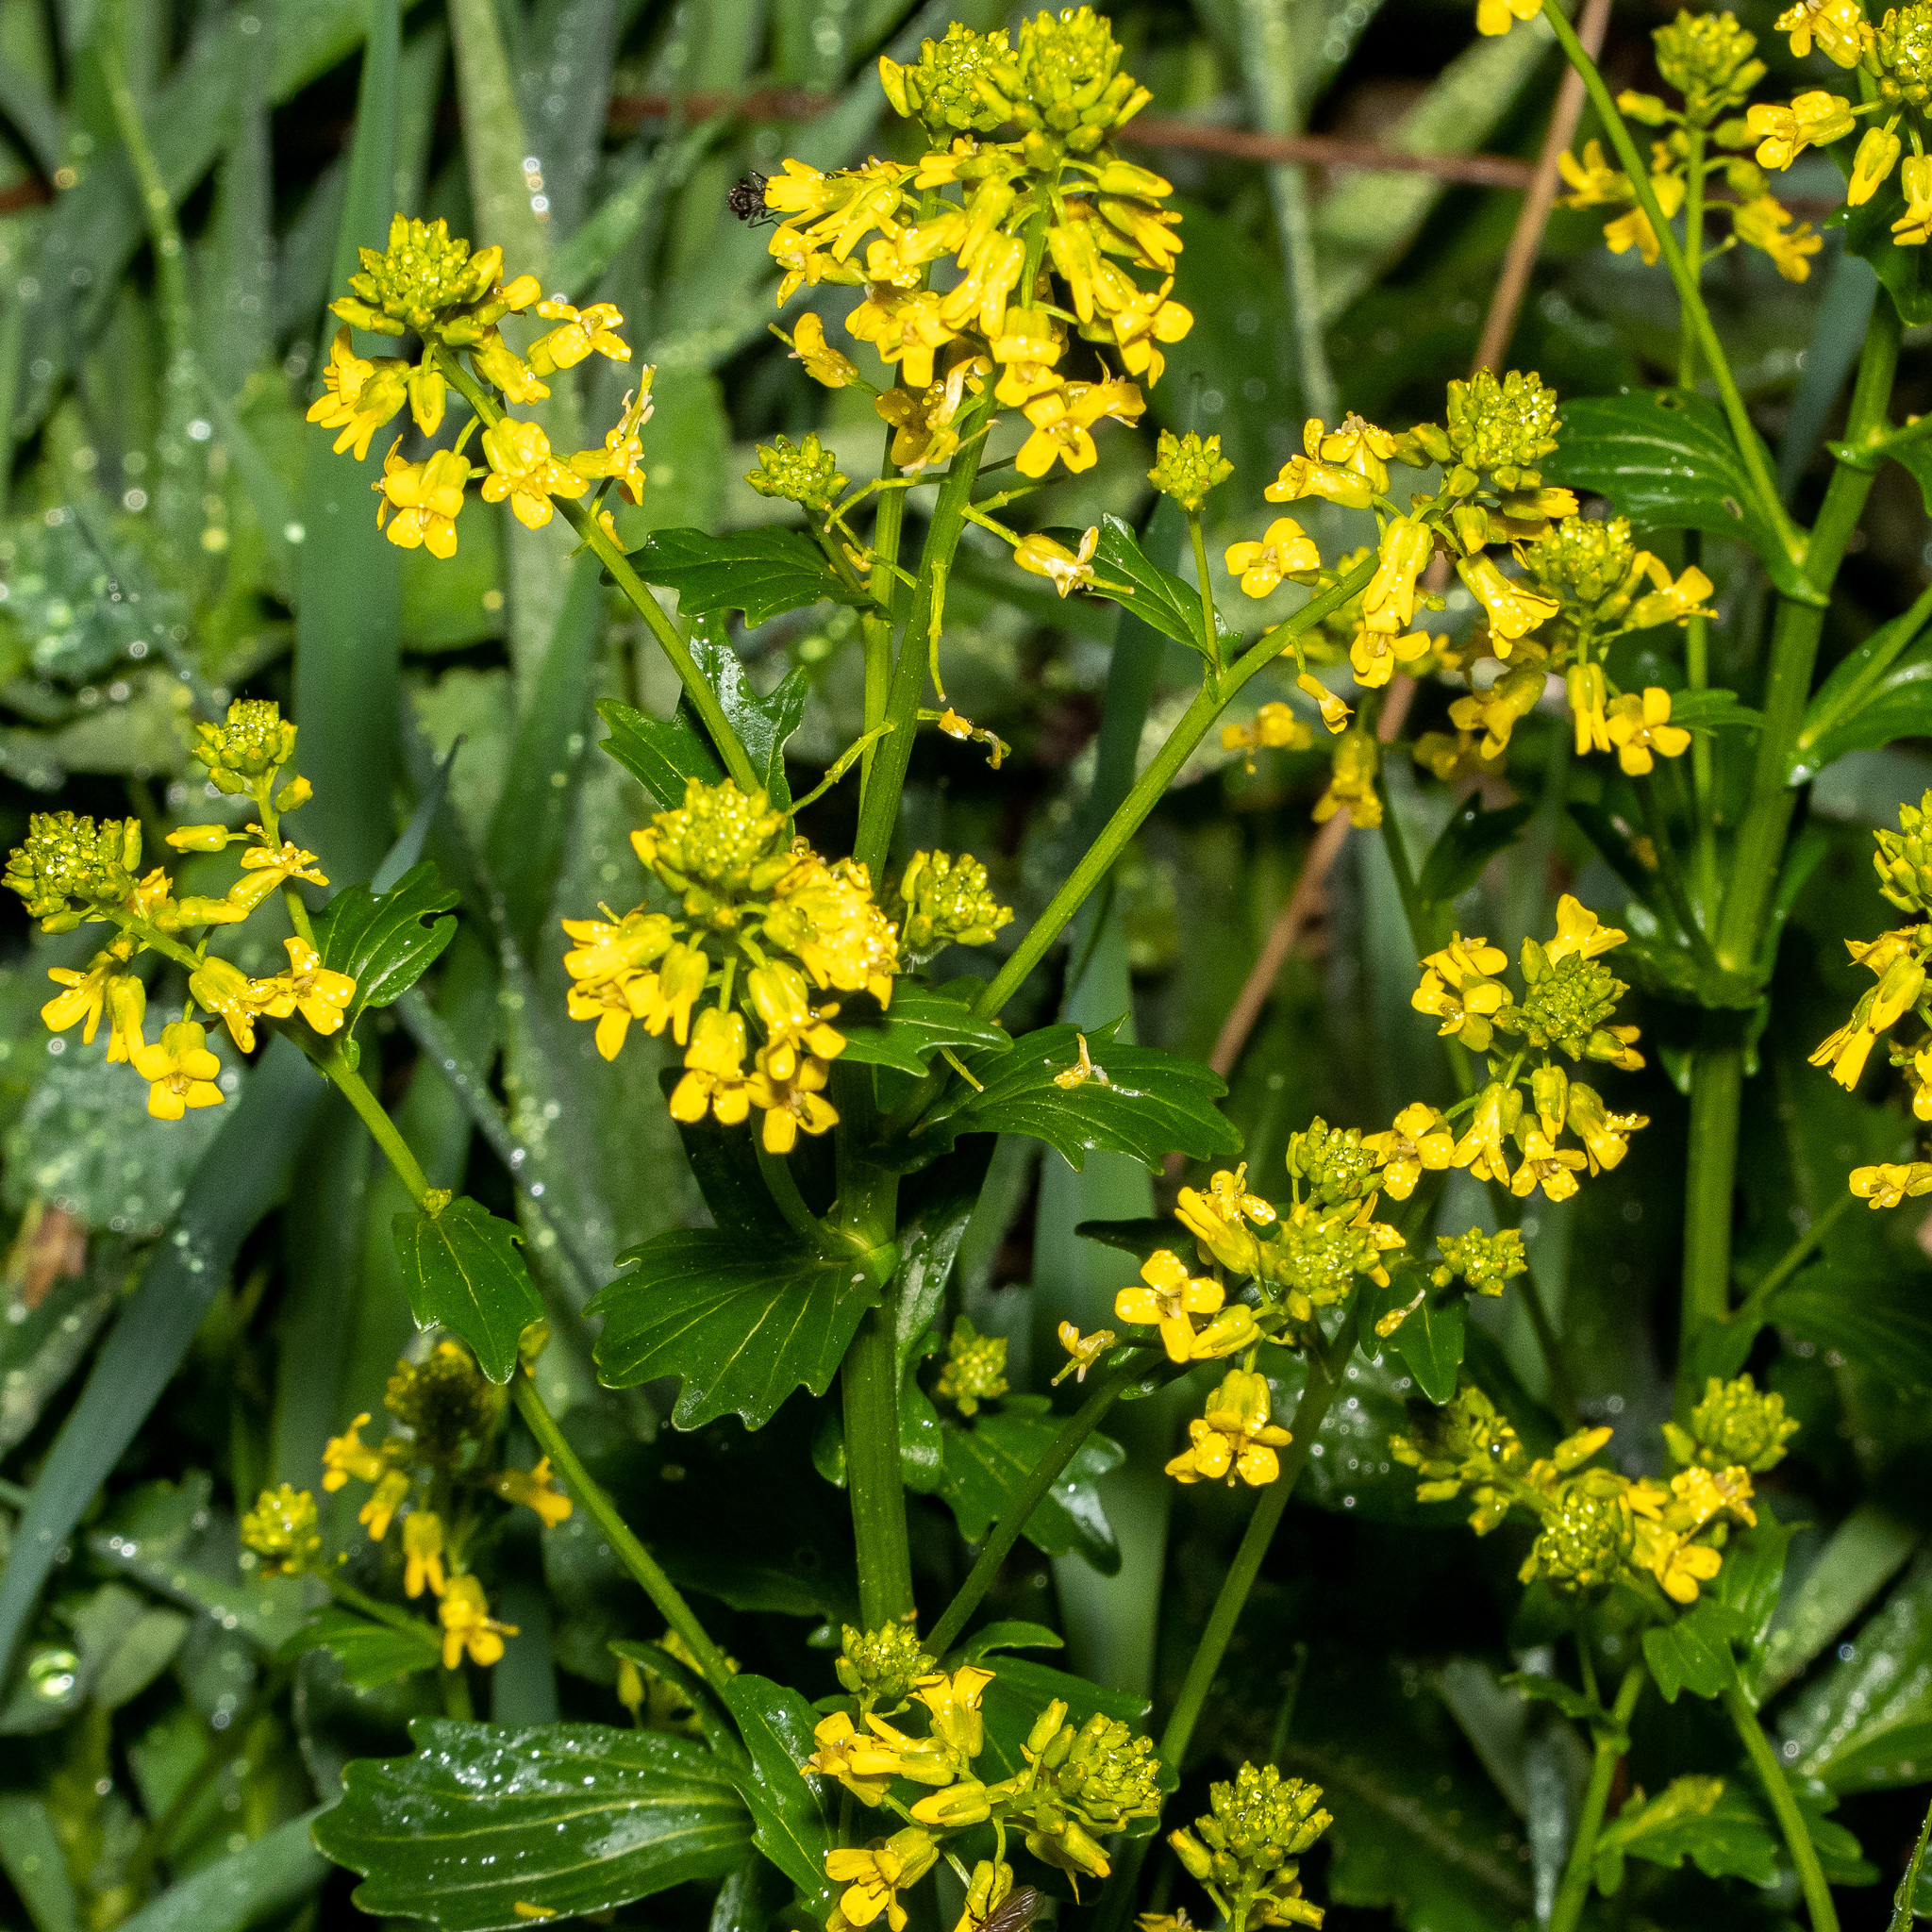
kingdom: Plantae
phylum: Tracheophyta
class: Magnoliopsida
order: Brassicales
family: Brassicaceae
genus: Barbarea
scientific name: Barbarea vulgaris
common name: Cressy-greens
